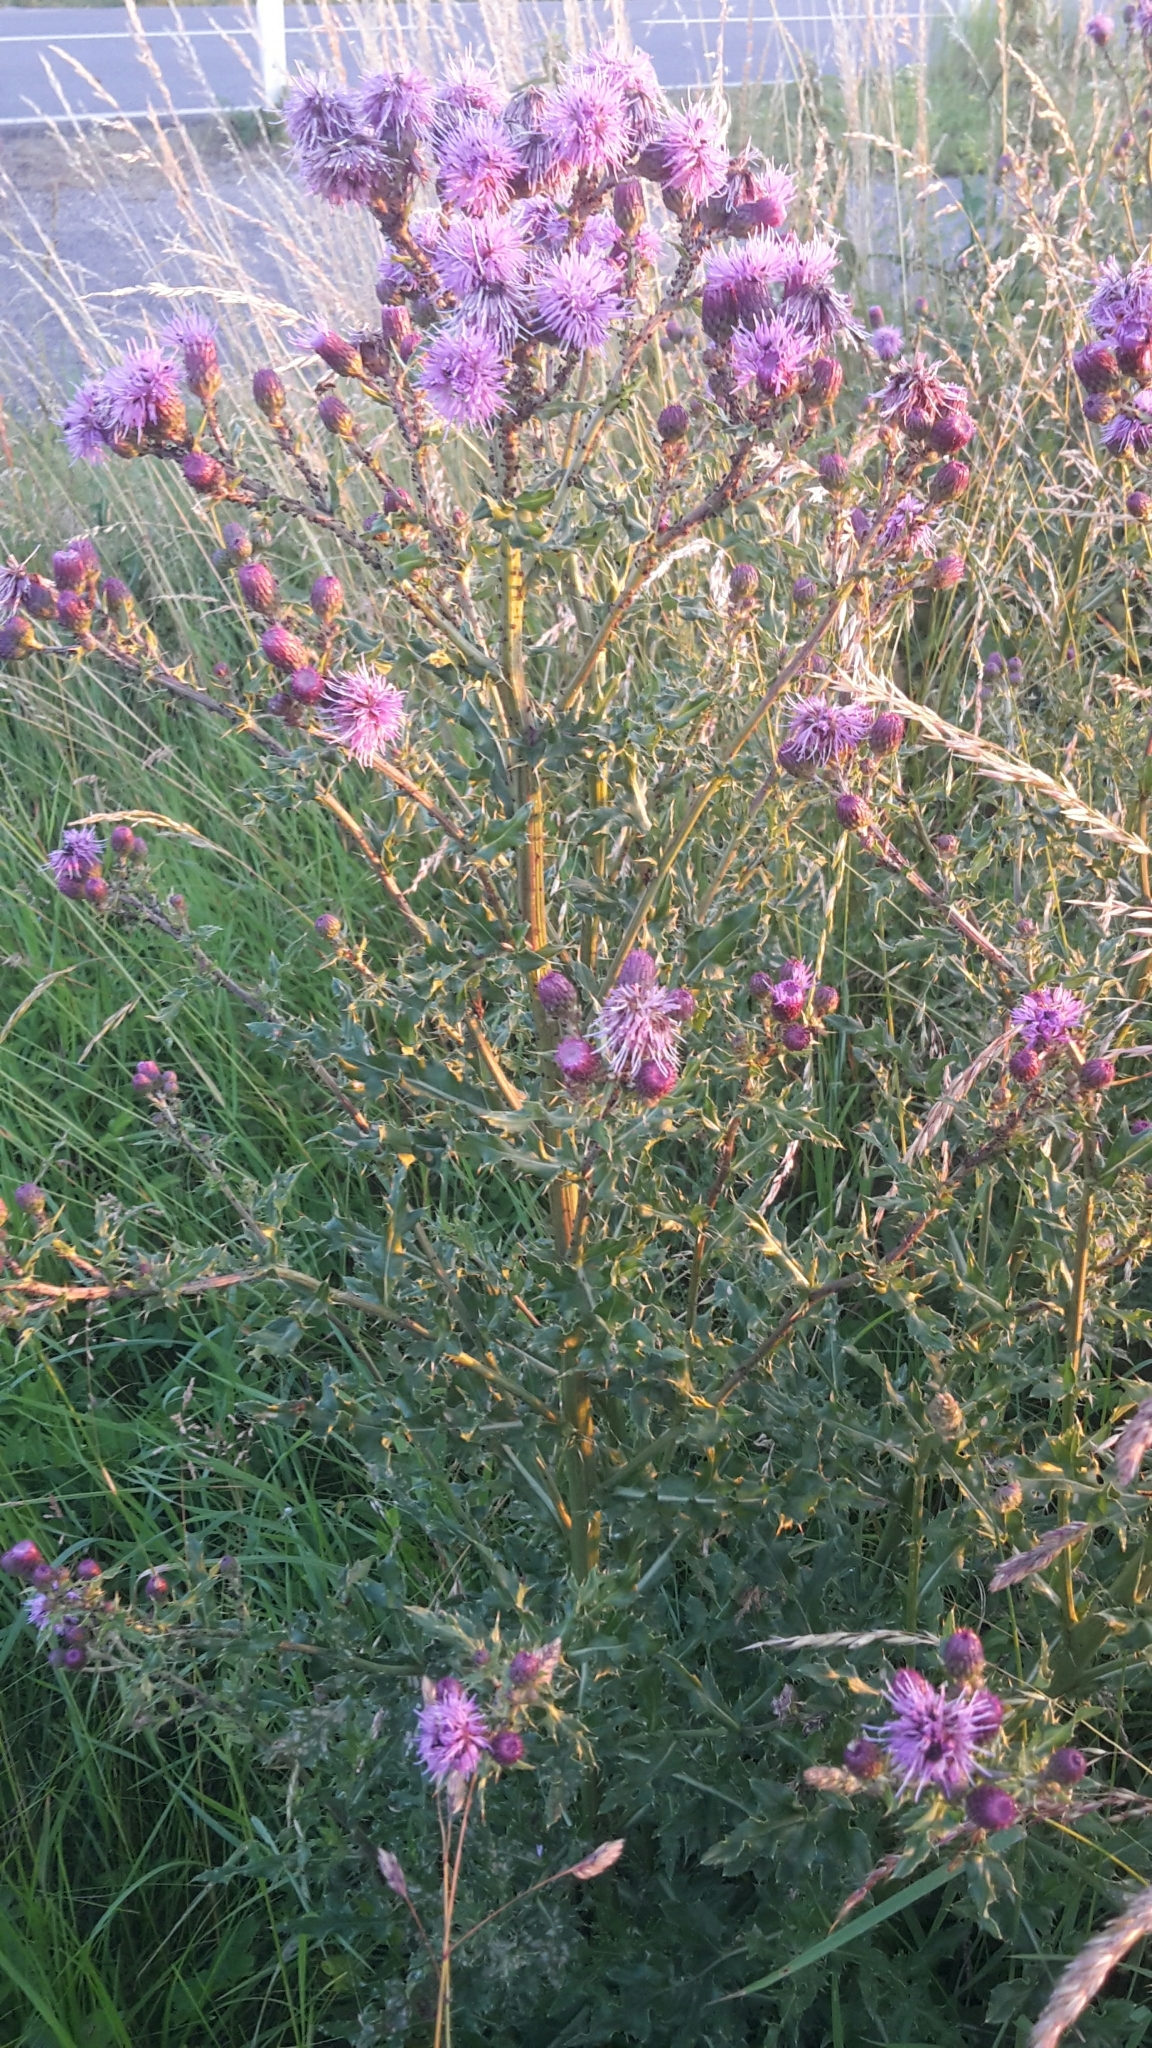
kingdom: Plantae
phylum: Tracheophyta
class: Magnoliopsida
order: Asterales
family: Asteraceae
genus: Cirsium
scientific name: Cirsium arvense
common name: Creeping thistle
